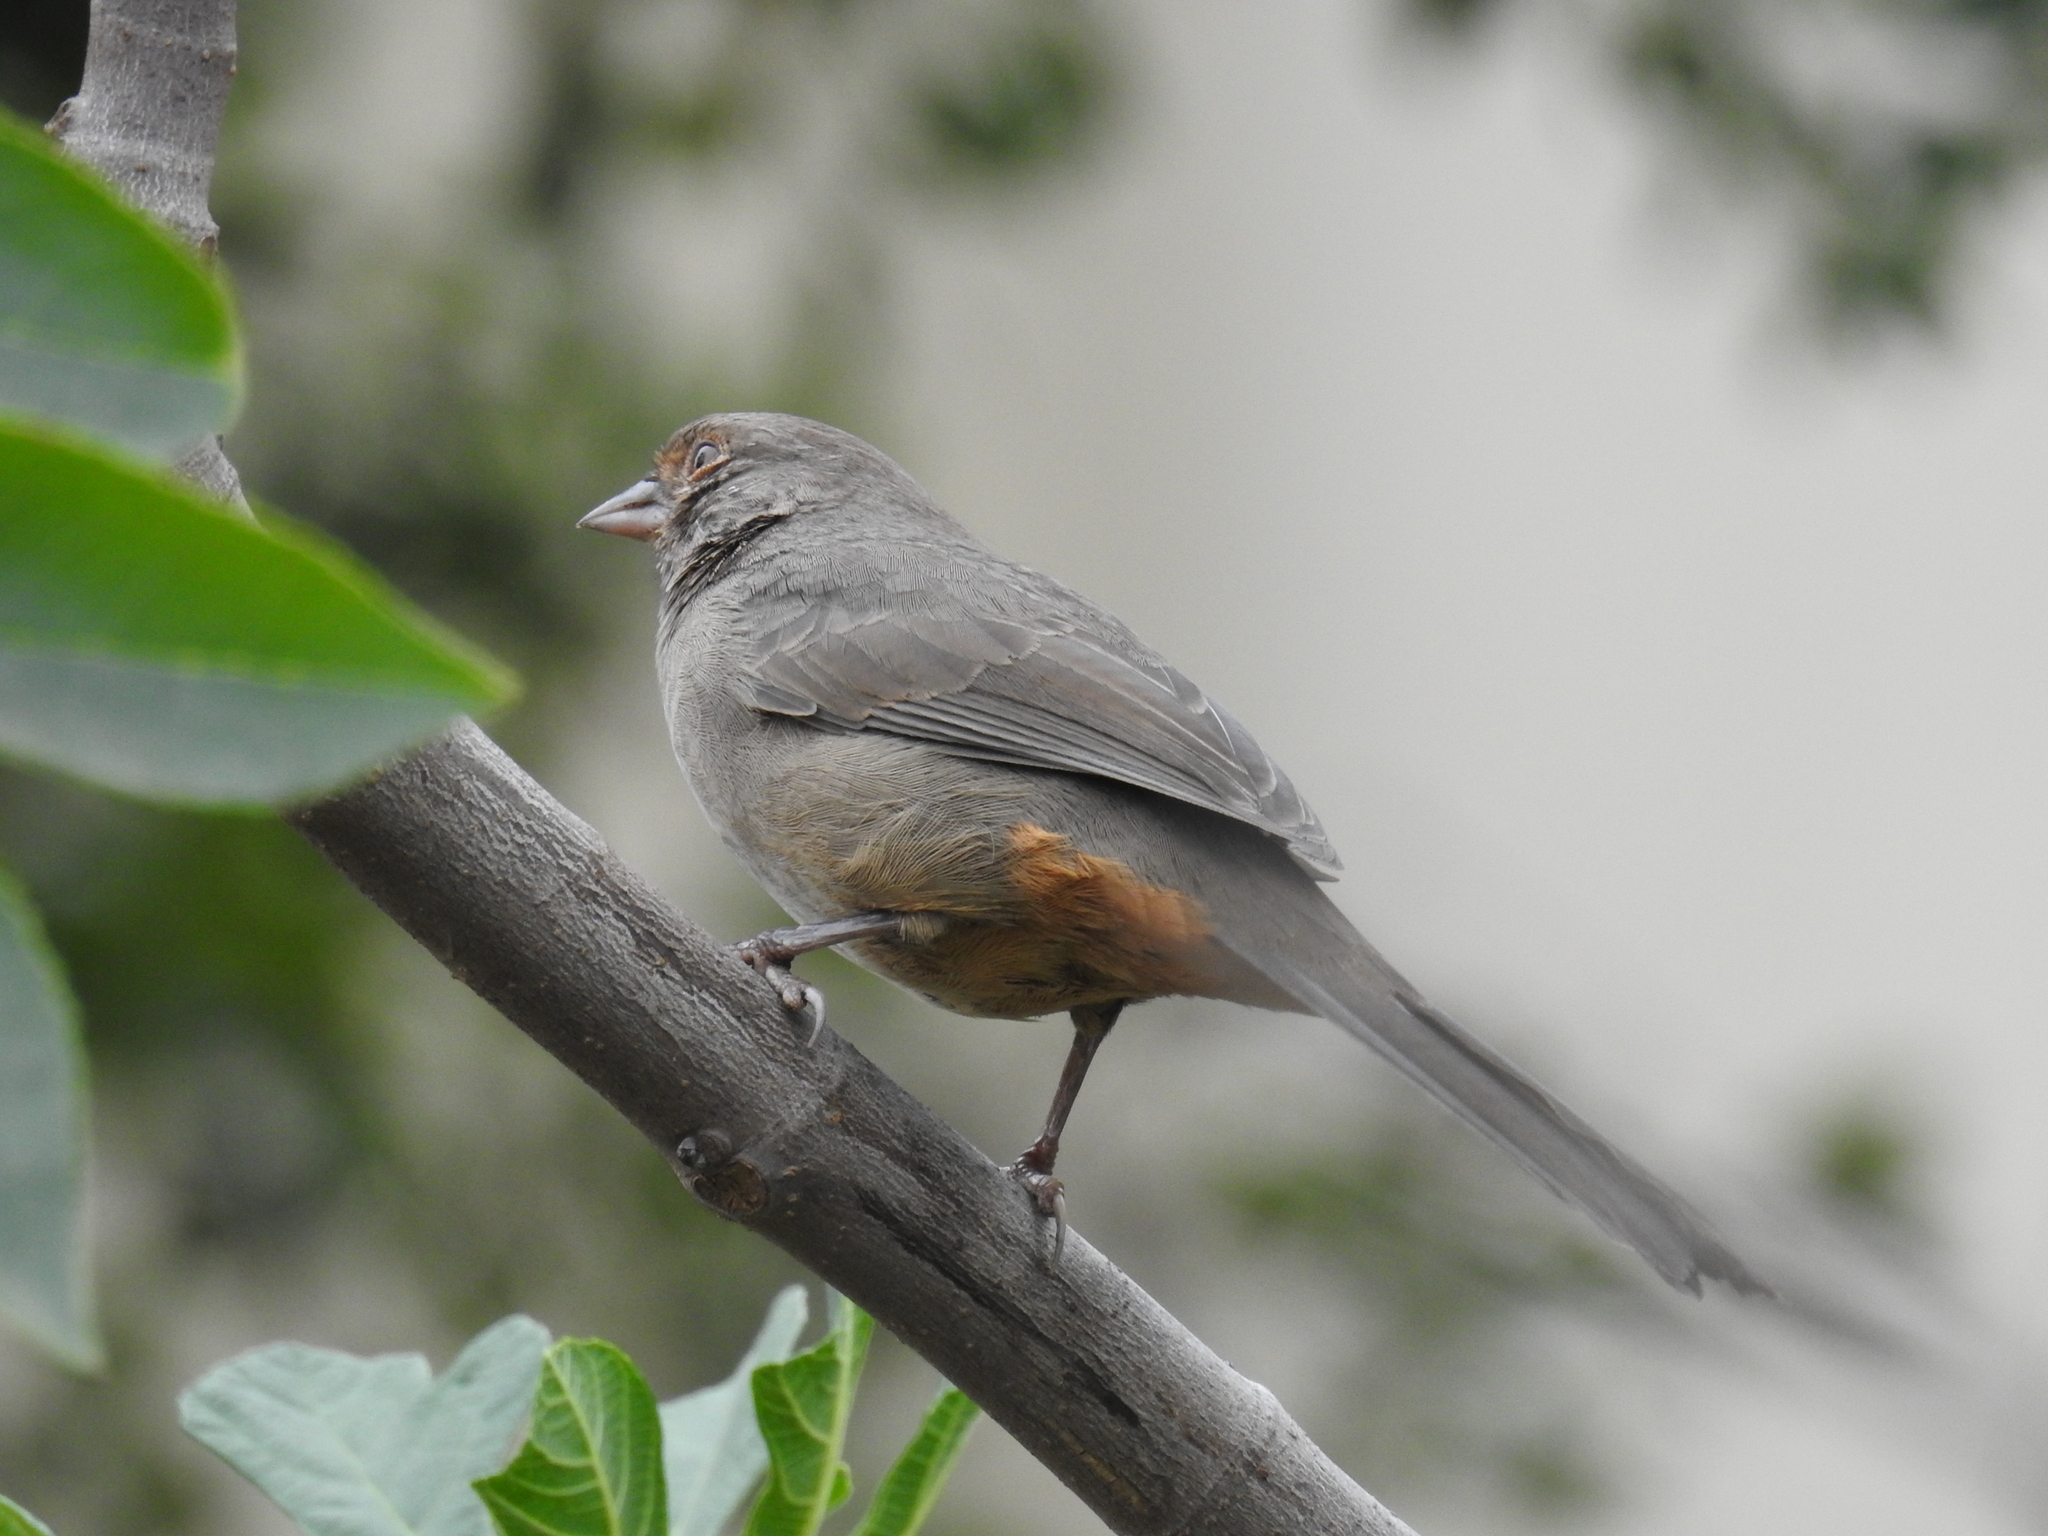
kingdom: Animalia
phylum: Chordata
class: Aves
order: Passeriformes
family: Passerellidae
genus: Melozone
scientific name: Melozone crissalis
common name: California towhee
